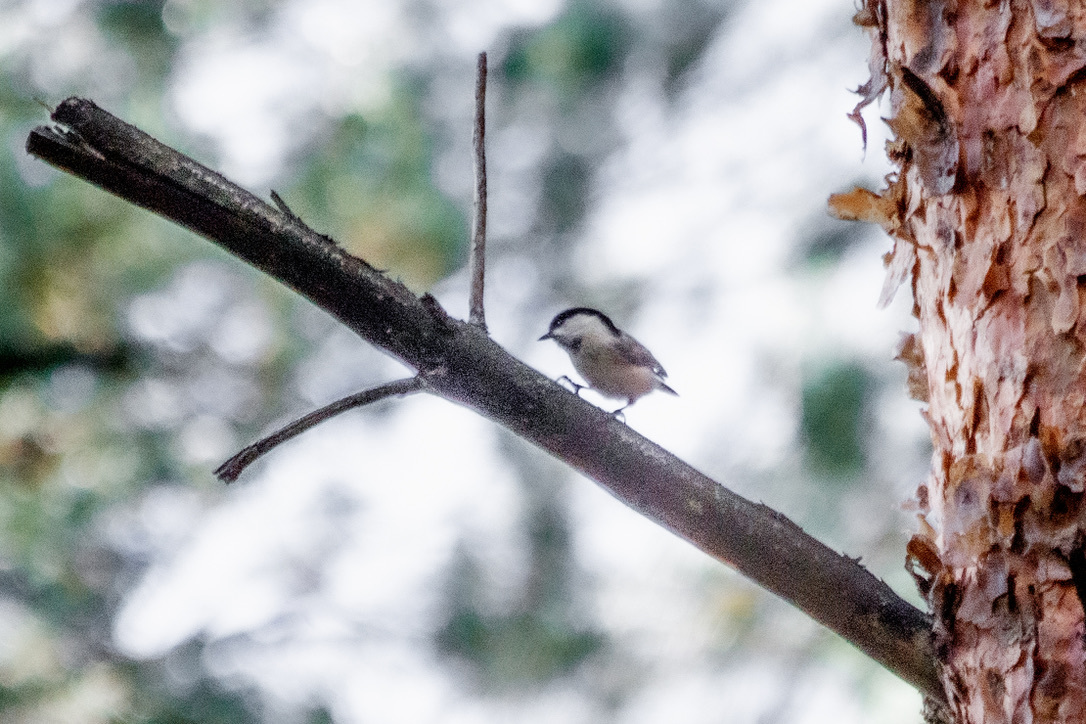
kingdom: Animalia
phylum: Chordata
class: Aves
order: Passeriformes
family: Paridae
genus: Poecile
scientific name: Poecile montanus
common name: Willow tit
